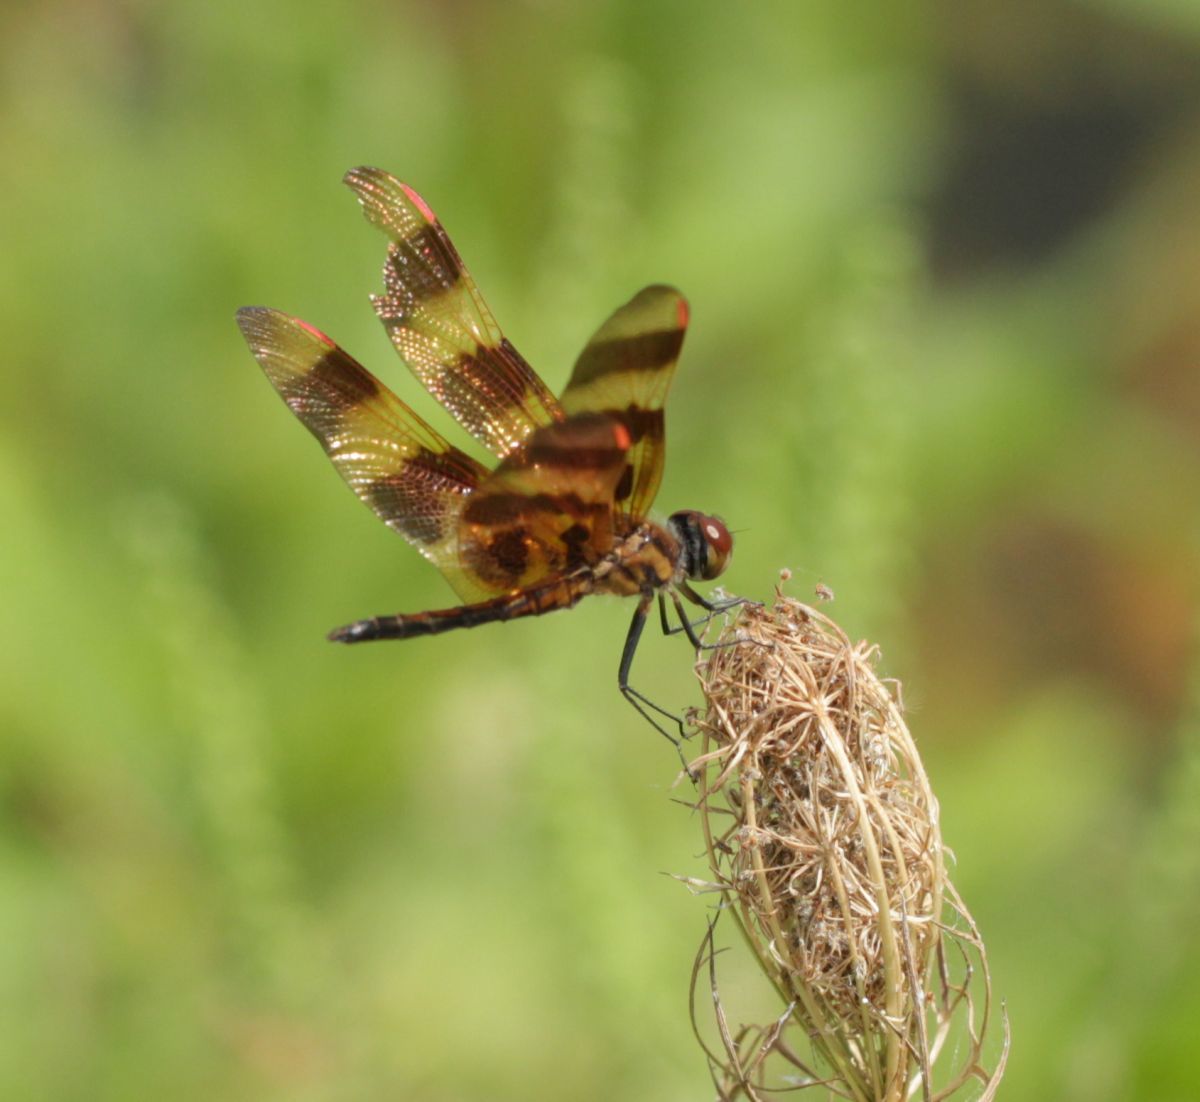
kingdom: Animalia
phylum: Arthropoda
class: Insecta
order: Odonata
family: Libellulidae
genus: Celithemis
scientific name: Celithemis eponina
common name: Halloween pennant
